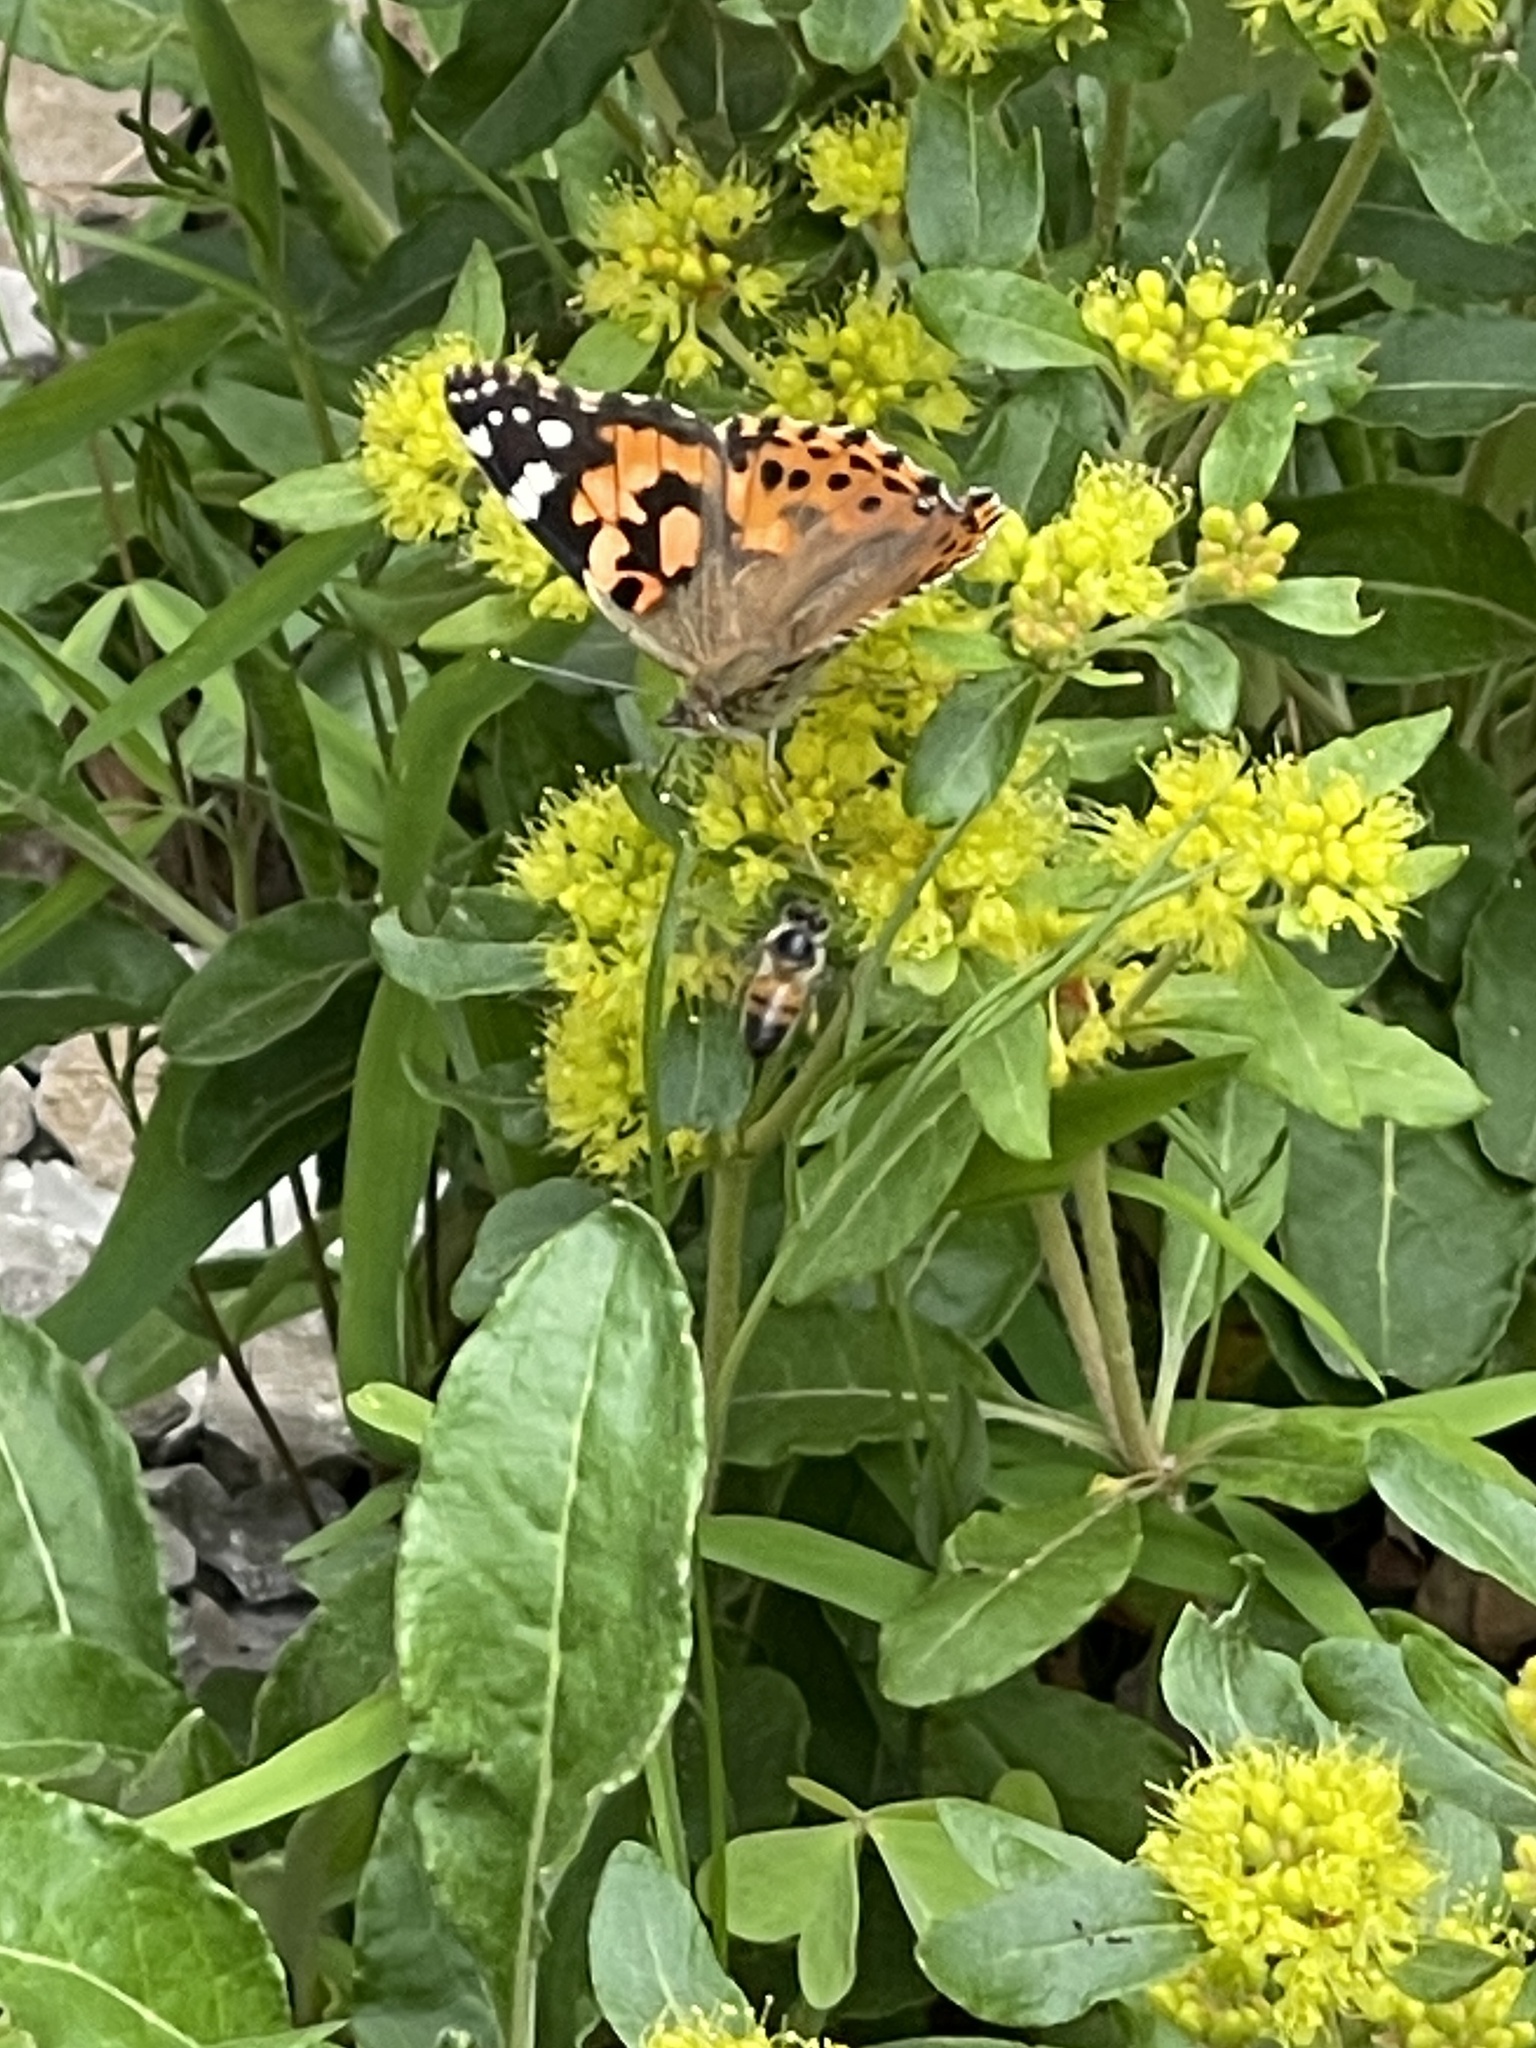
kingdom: Animalia
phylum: Arthropoda
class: Insecta
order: Hymenoptera
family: Apidae
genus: Apis
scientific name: Apis mellifera
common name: Honey bee
